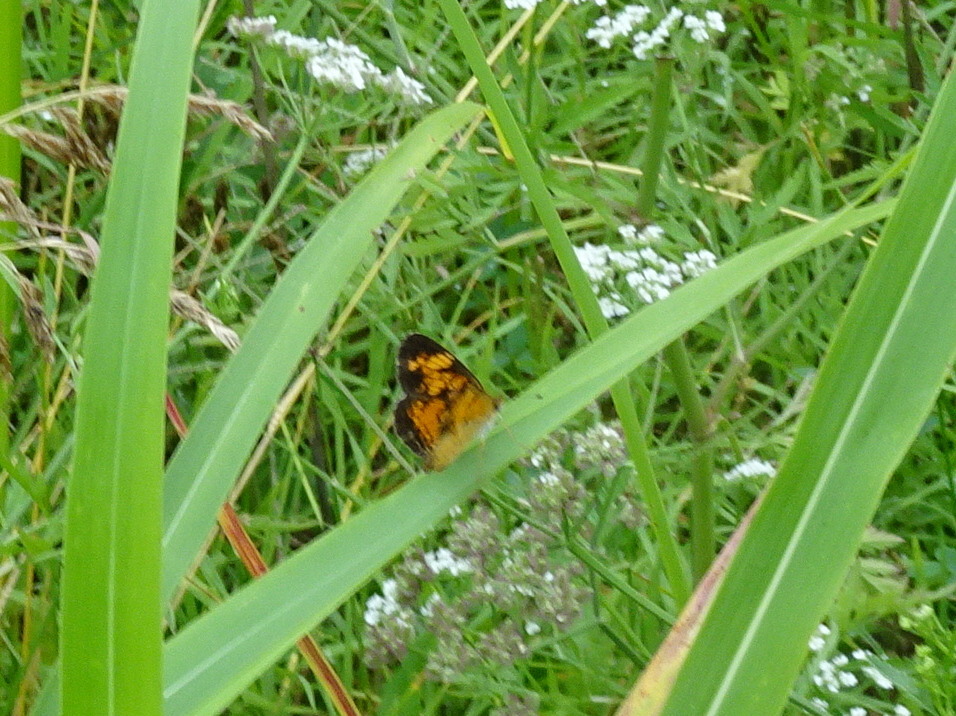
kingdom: Animalia
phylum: Arthropoda
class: Insecta
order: Lepidoptera
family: Nymphalidae
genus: Phyciodes
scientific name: Phyciodes tharos
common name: Pearl crescent
